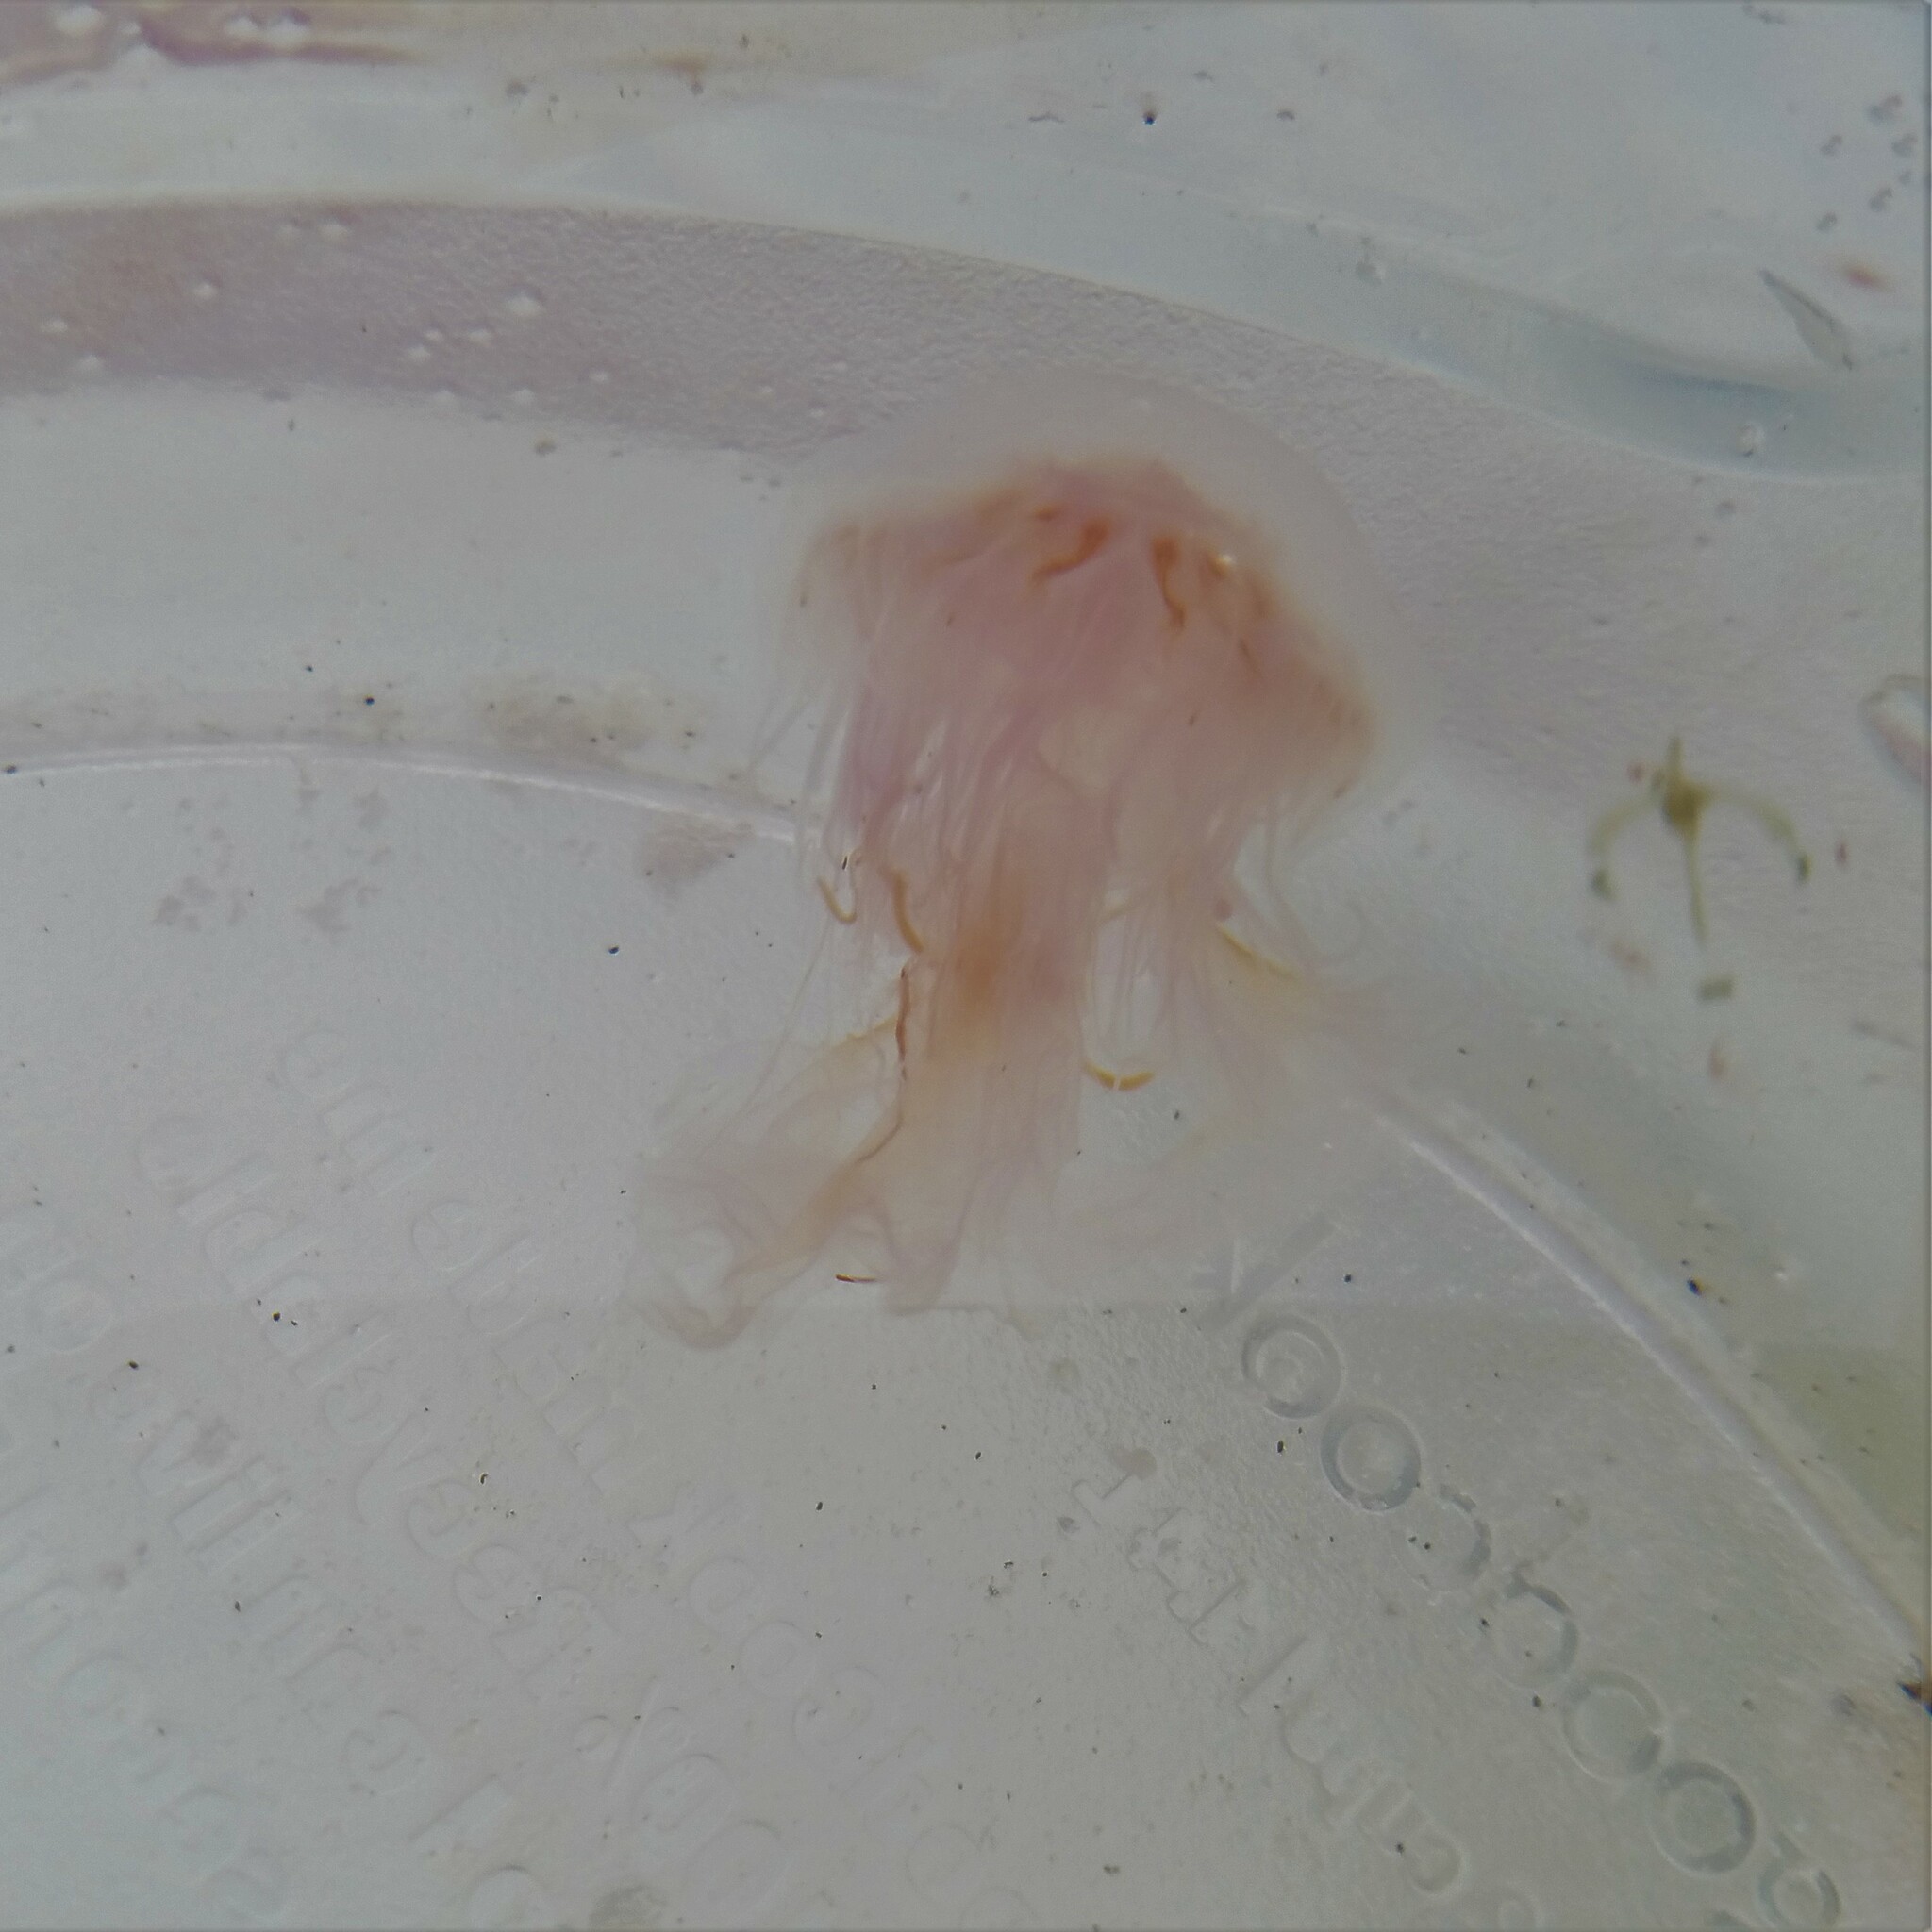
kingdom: Animalia
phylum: Cnidaria
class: Scyphozoa
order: Semaeostomeae
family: Cyaneidae
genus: Cyanea
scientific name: Cyanea versicolor
